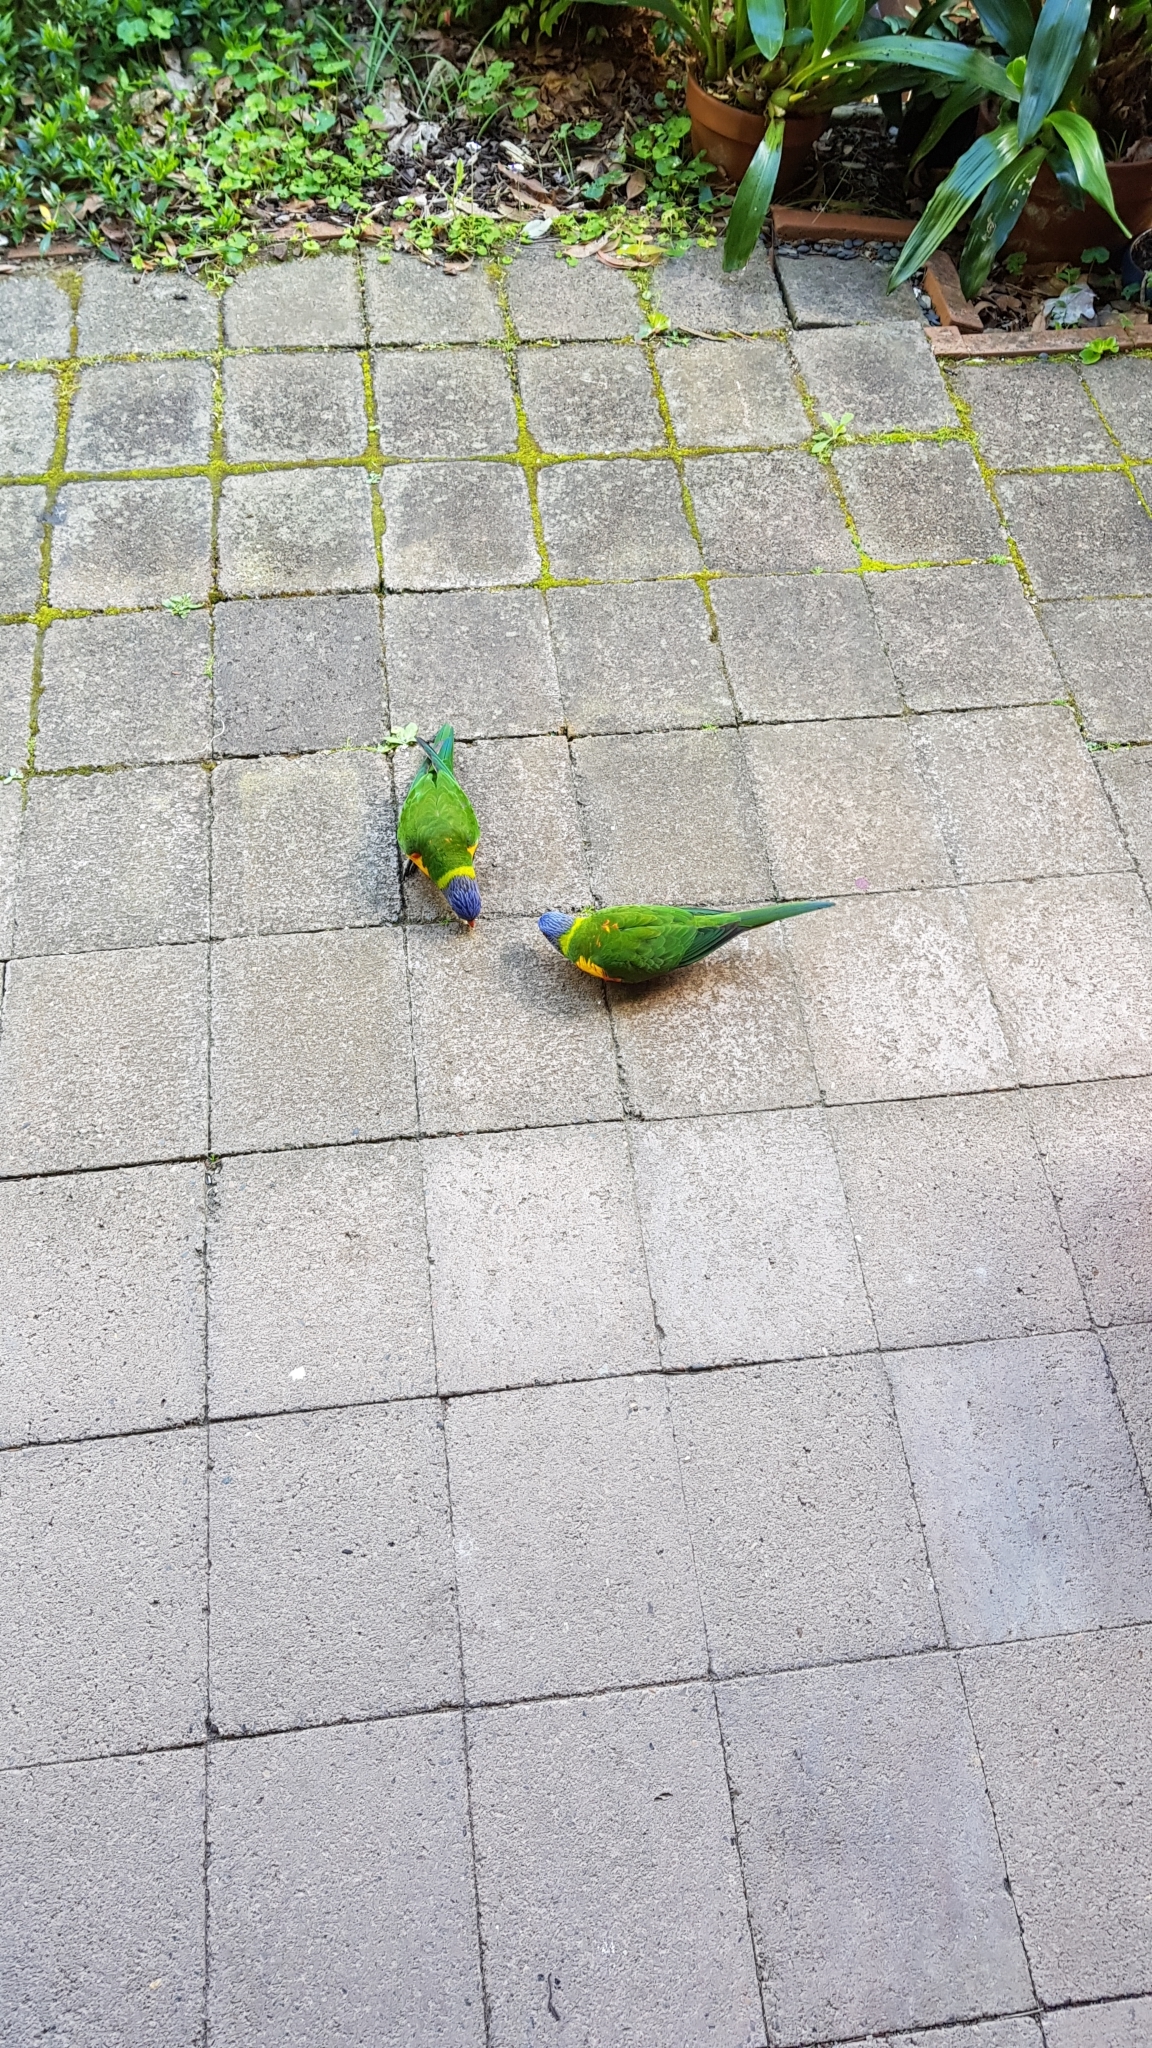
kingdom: Animalia
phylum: Chordata
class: Aves
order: Psittaciformes
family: Psittacidae
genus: Trichoglossus
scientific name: Trichoglossus haematodus
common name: Coconut lorikeet
